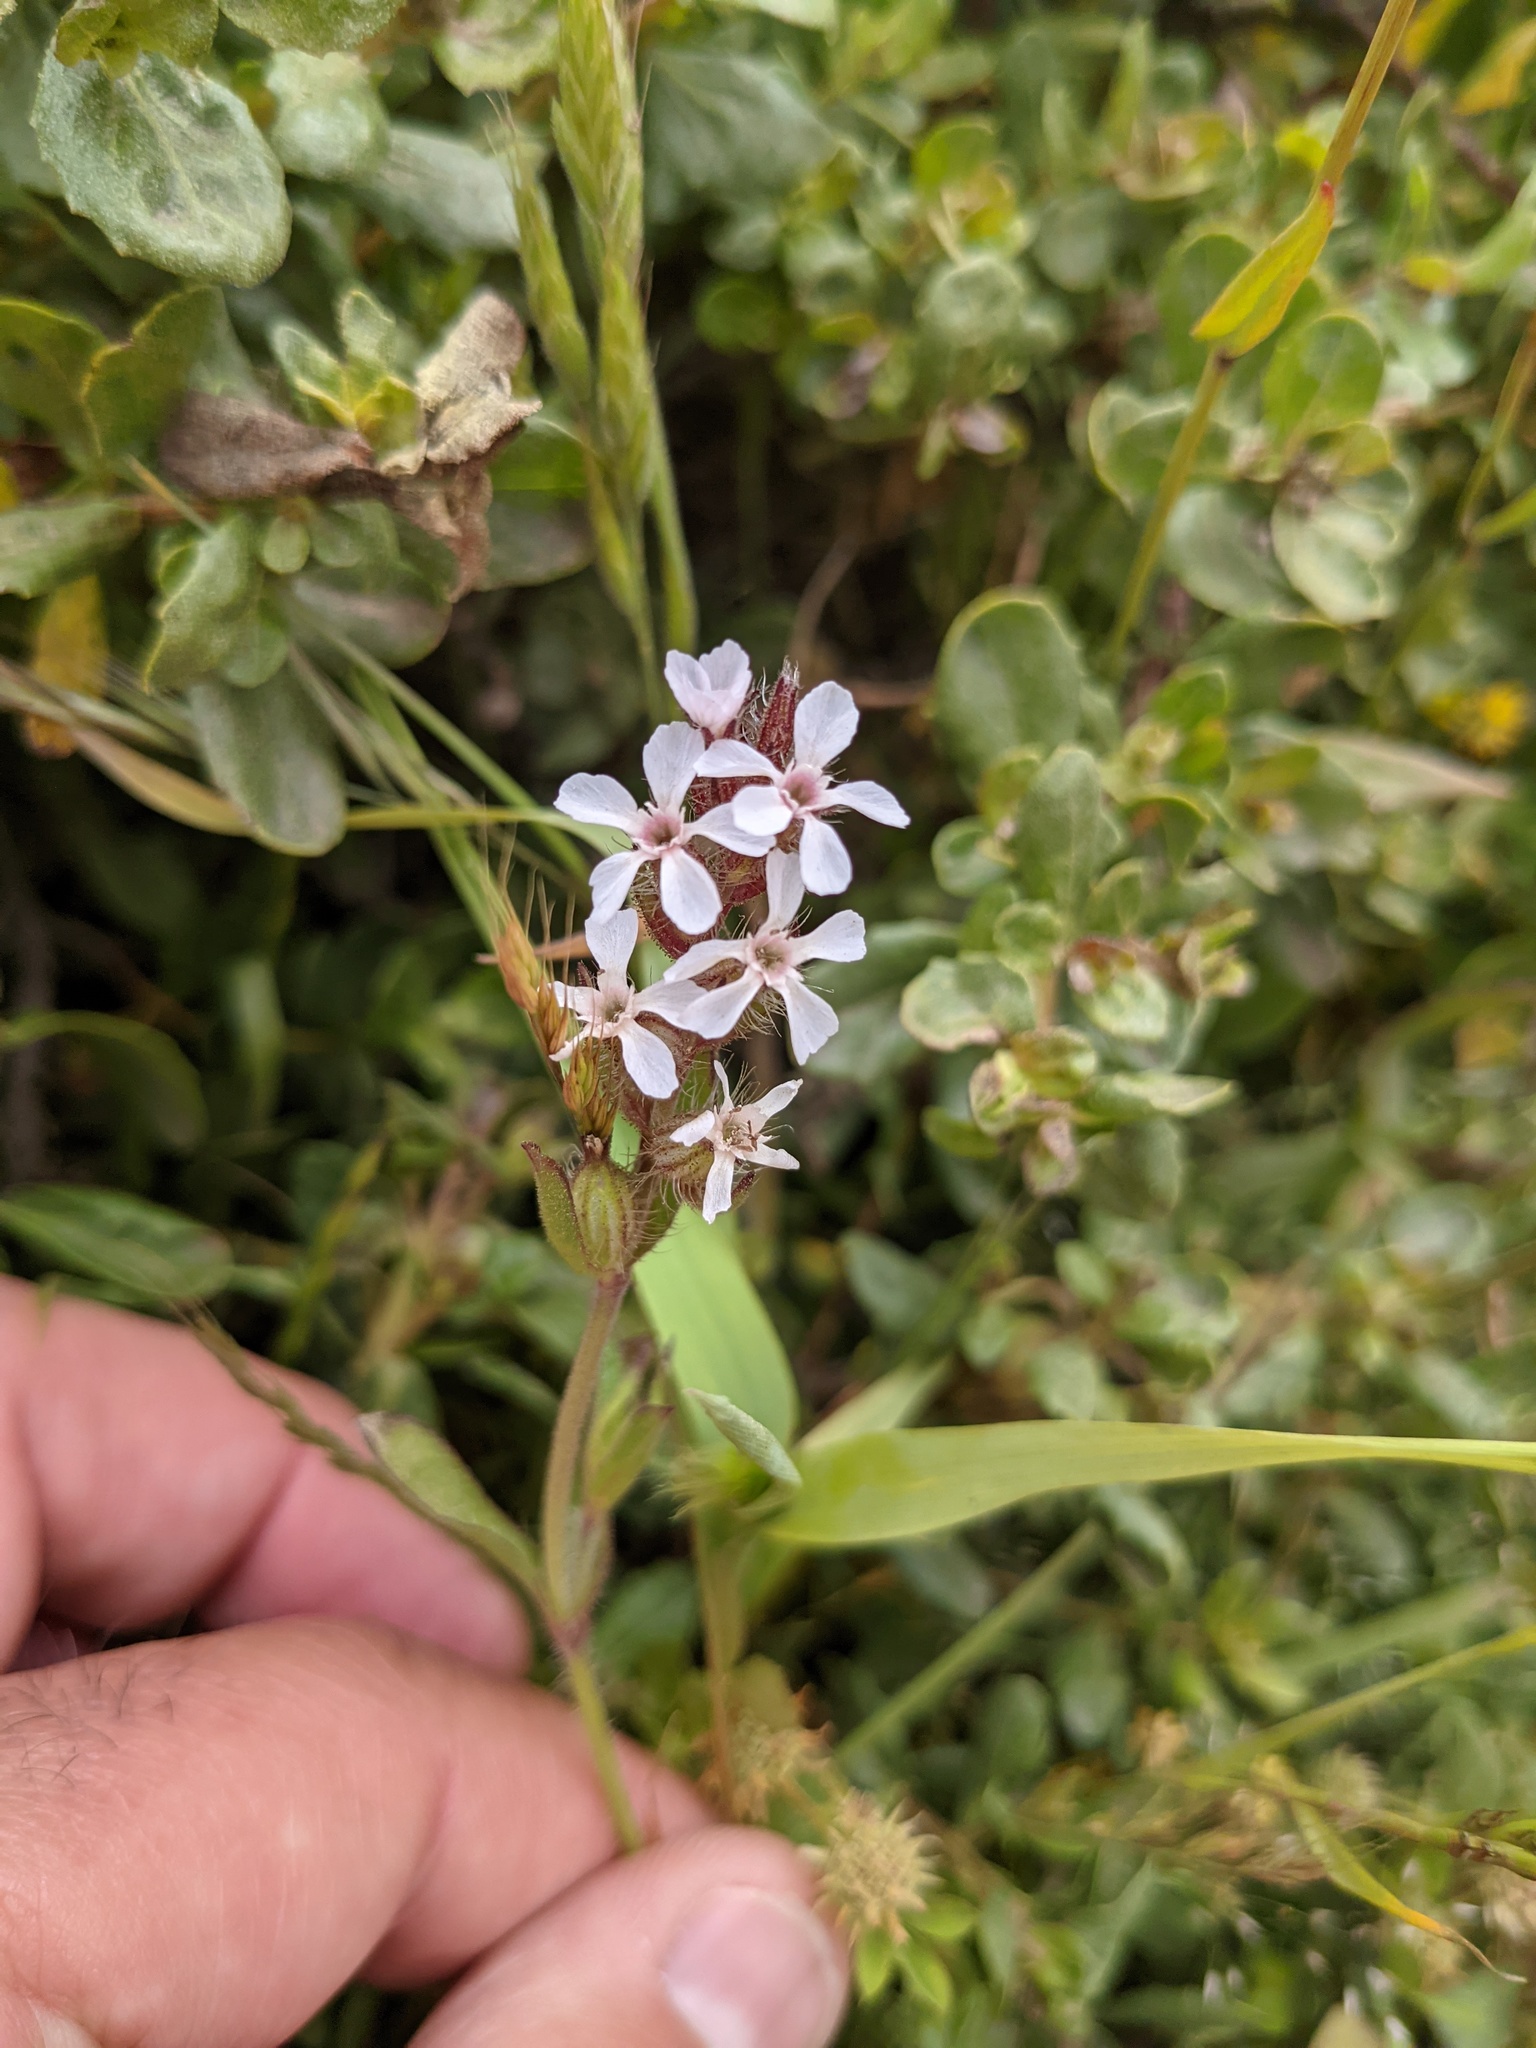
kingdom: Plantae
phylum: Tracheophyta
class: Magnoliopsida
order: Caryophyllales
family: Caryophyllaceae
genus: Silene
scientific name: Silene gallica
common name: Small-flowered catchfly
